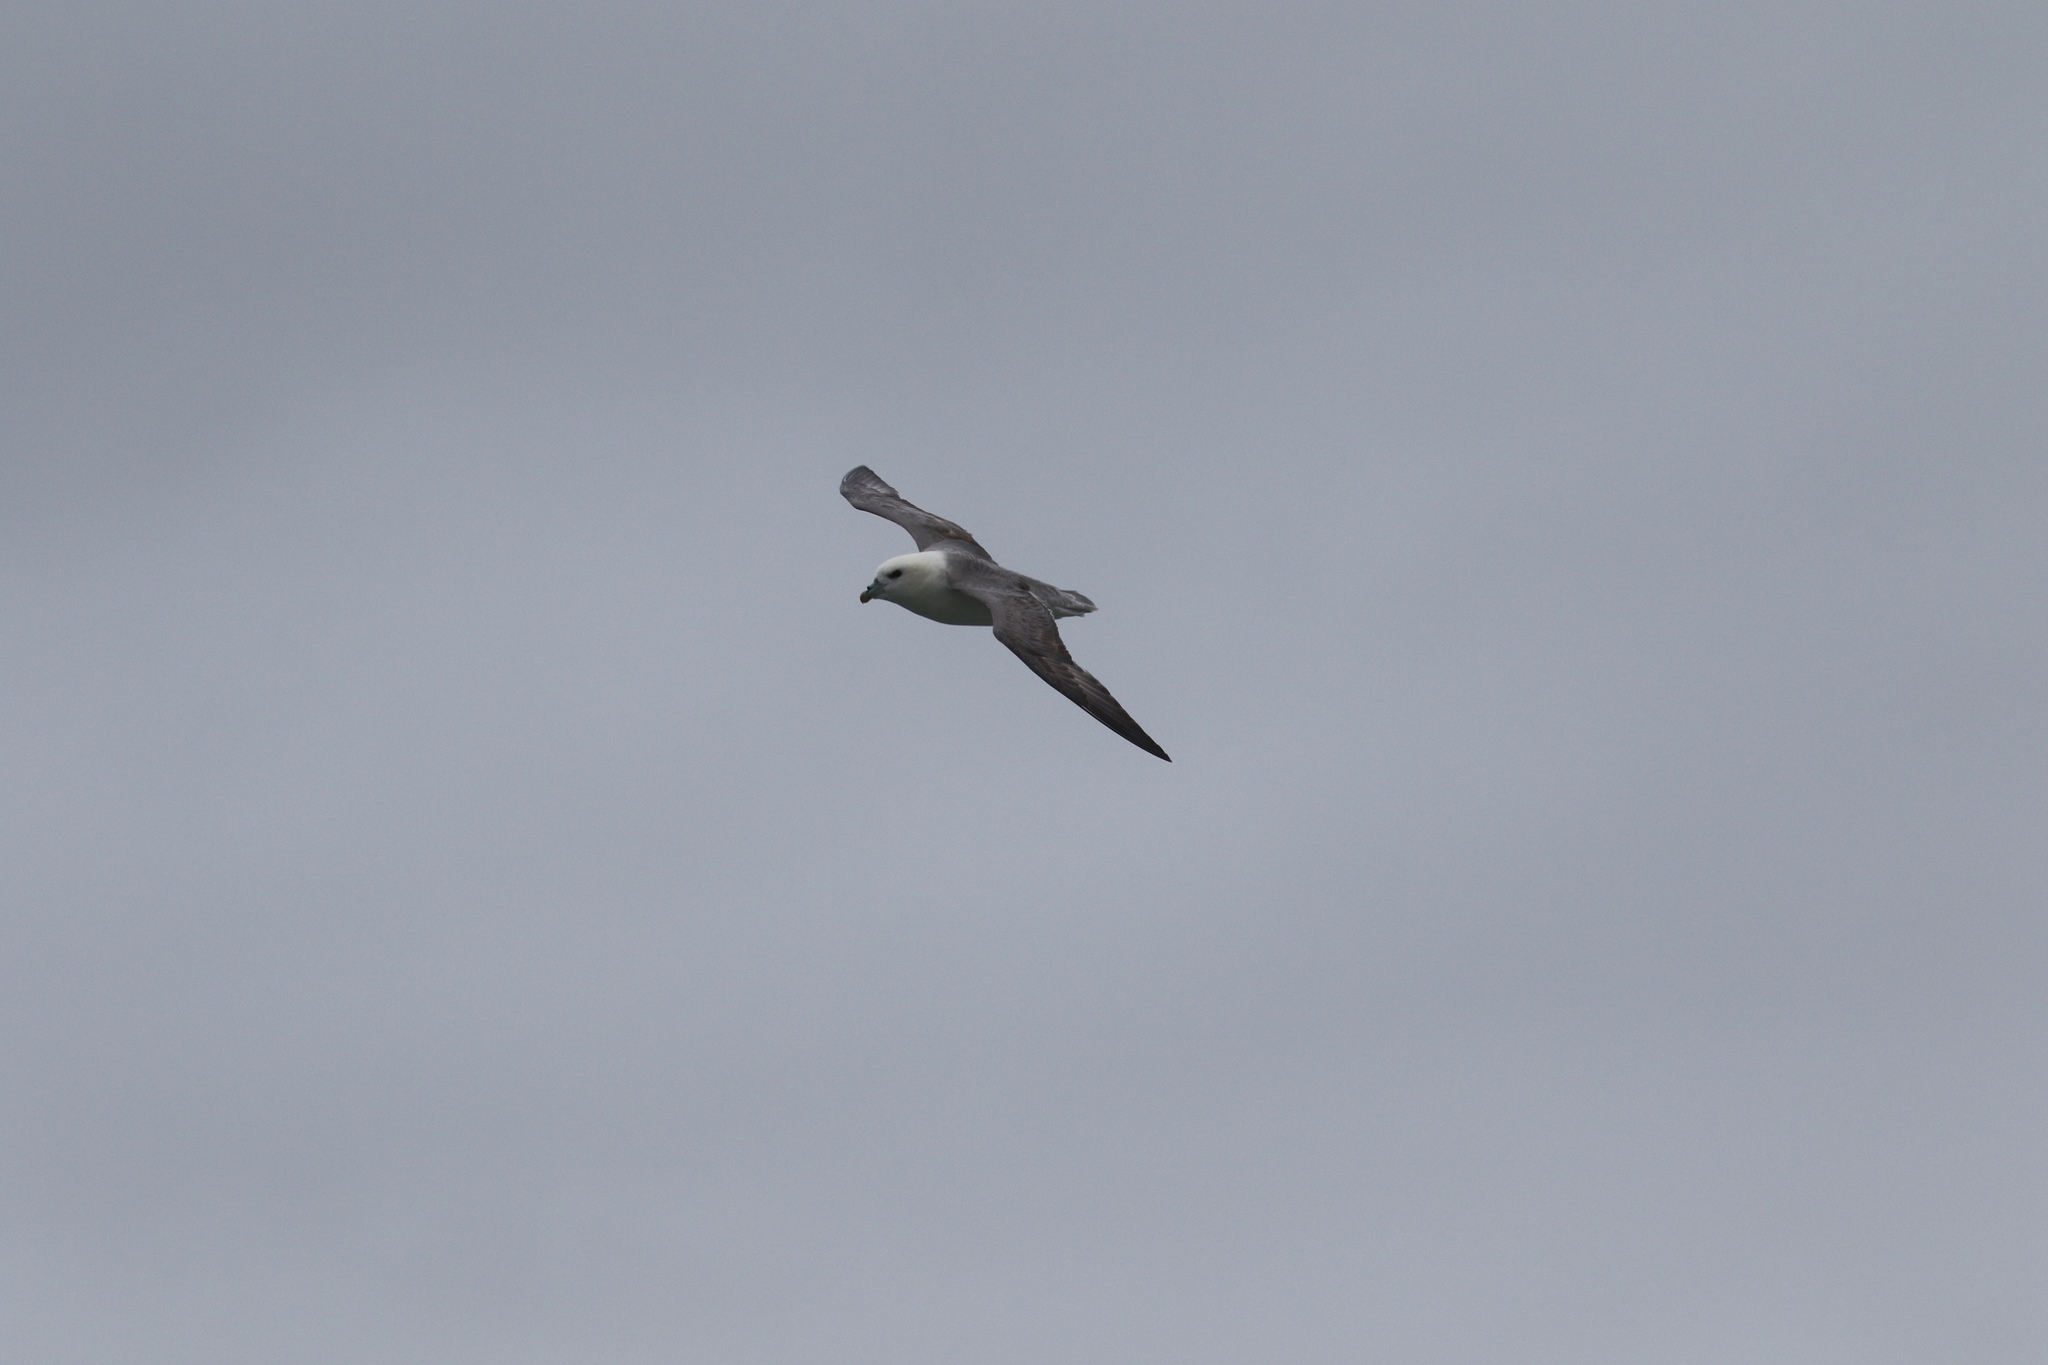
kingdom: Animalia
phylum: Chordata
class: Aves
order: Procellariiformes
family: Procellariidae
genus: Fulmarus
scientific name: Fulmarus glacialis
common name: Northern fulmar
